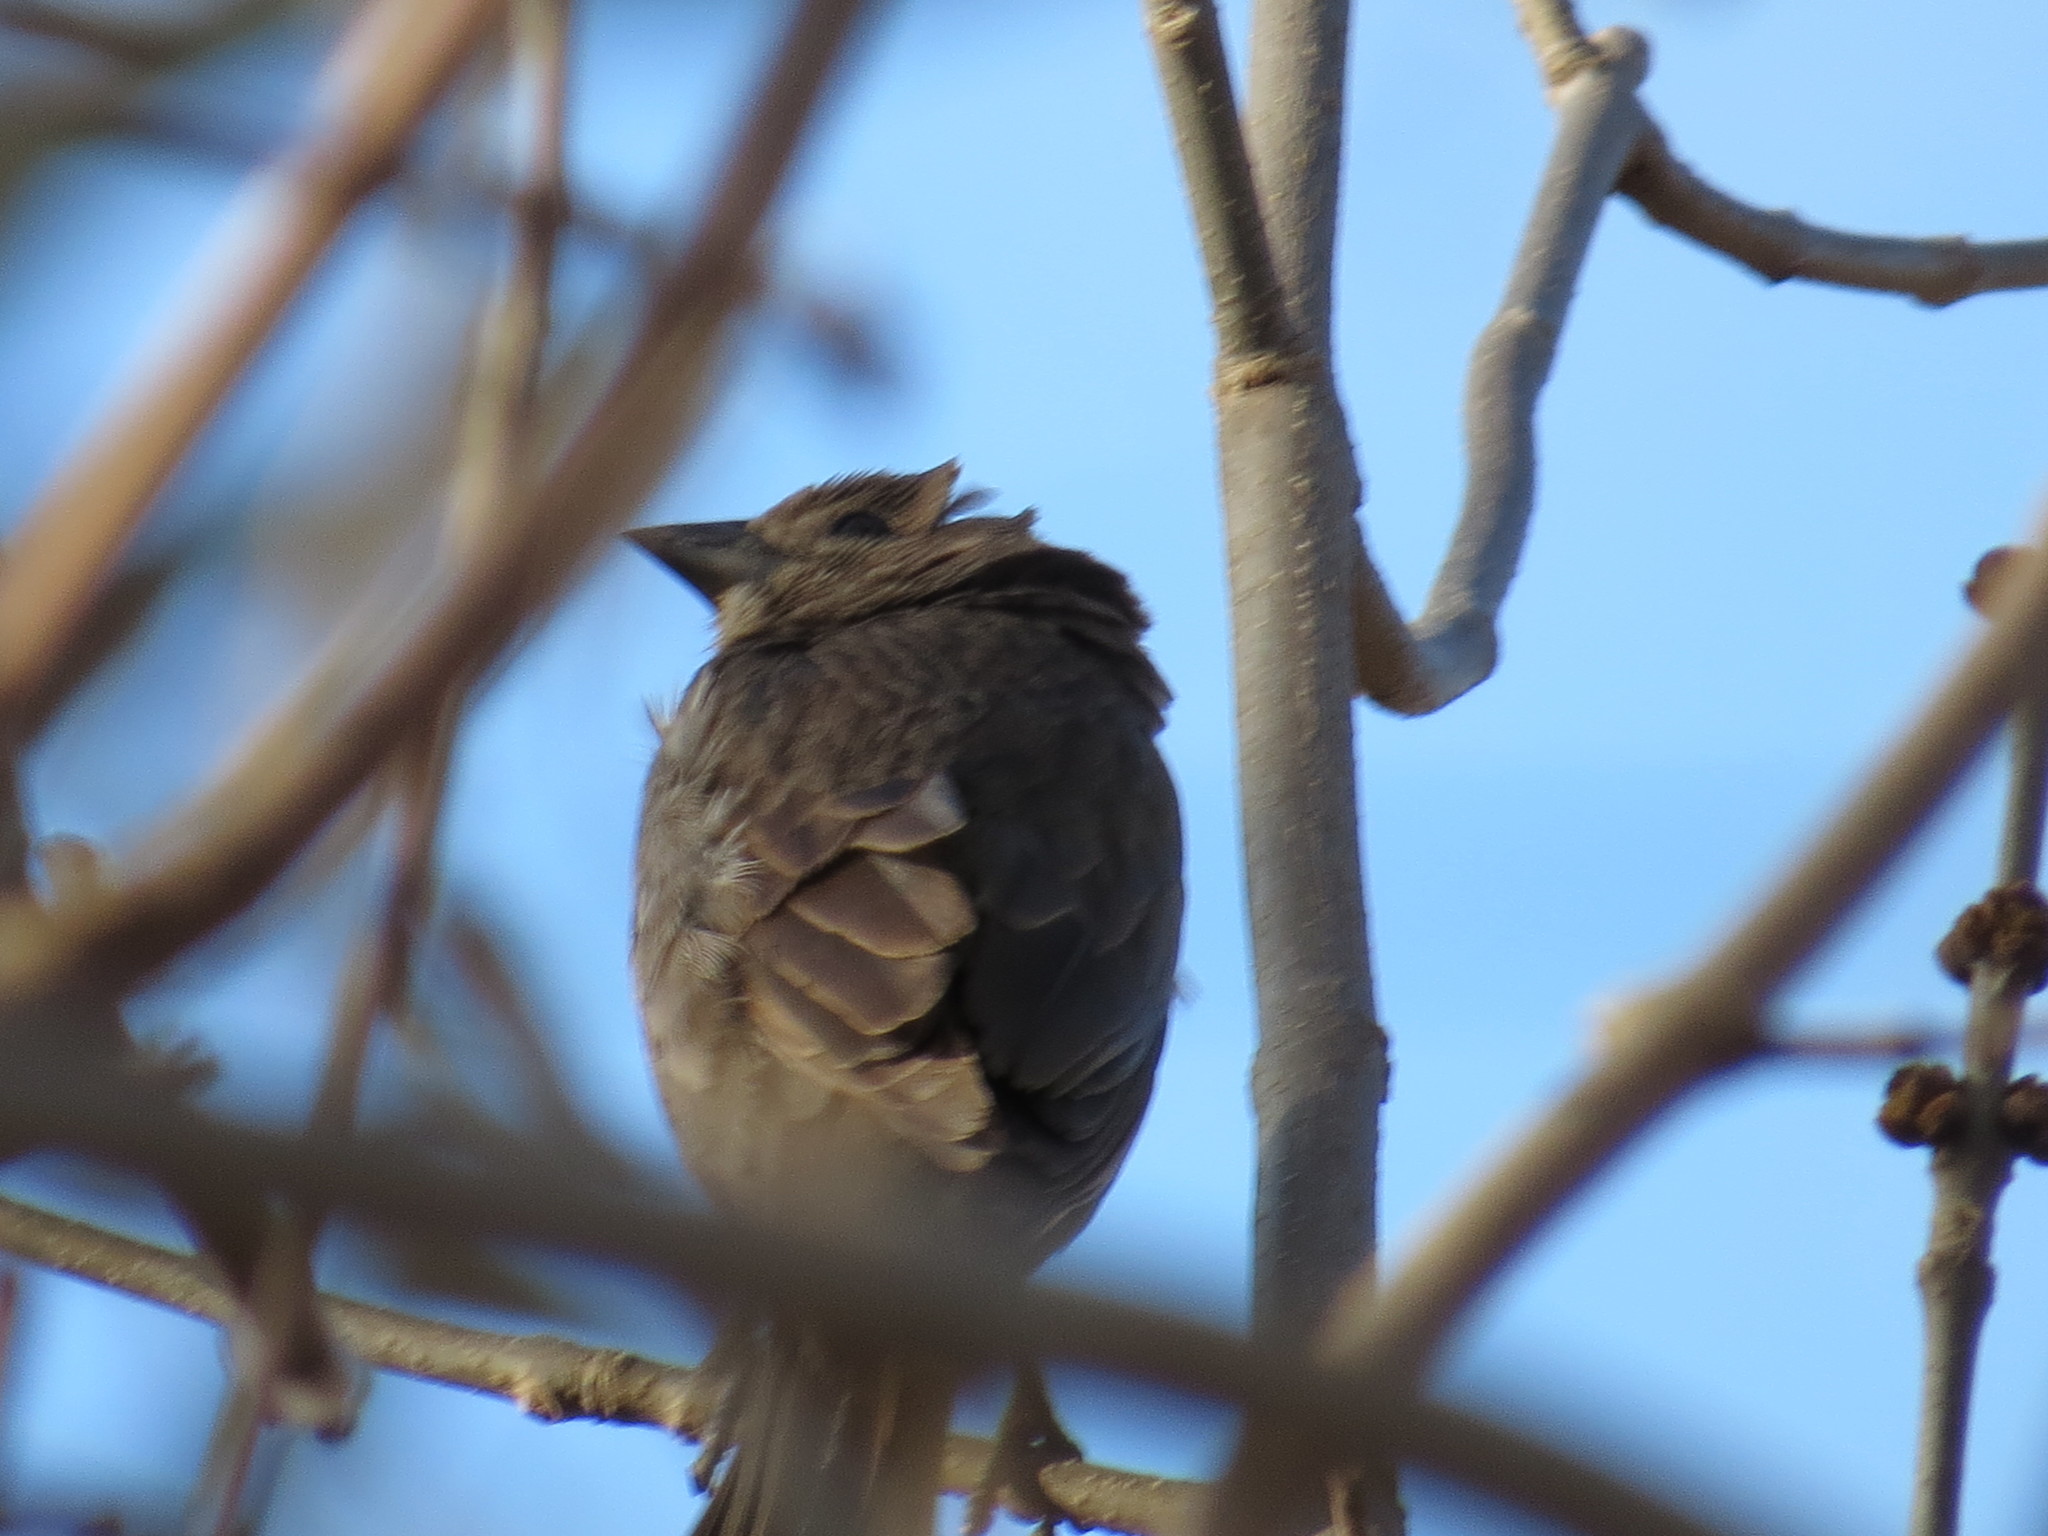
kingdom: Animalia
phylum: Chordata
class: Aves
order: Passeriformes
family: Icteridae
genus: Molothrus
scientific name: Molothrus ater
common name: Brown-headed cowbird
